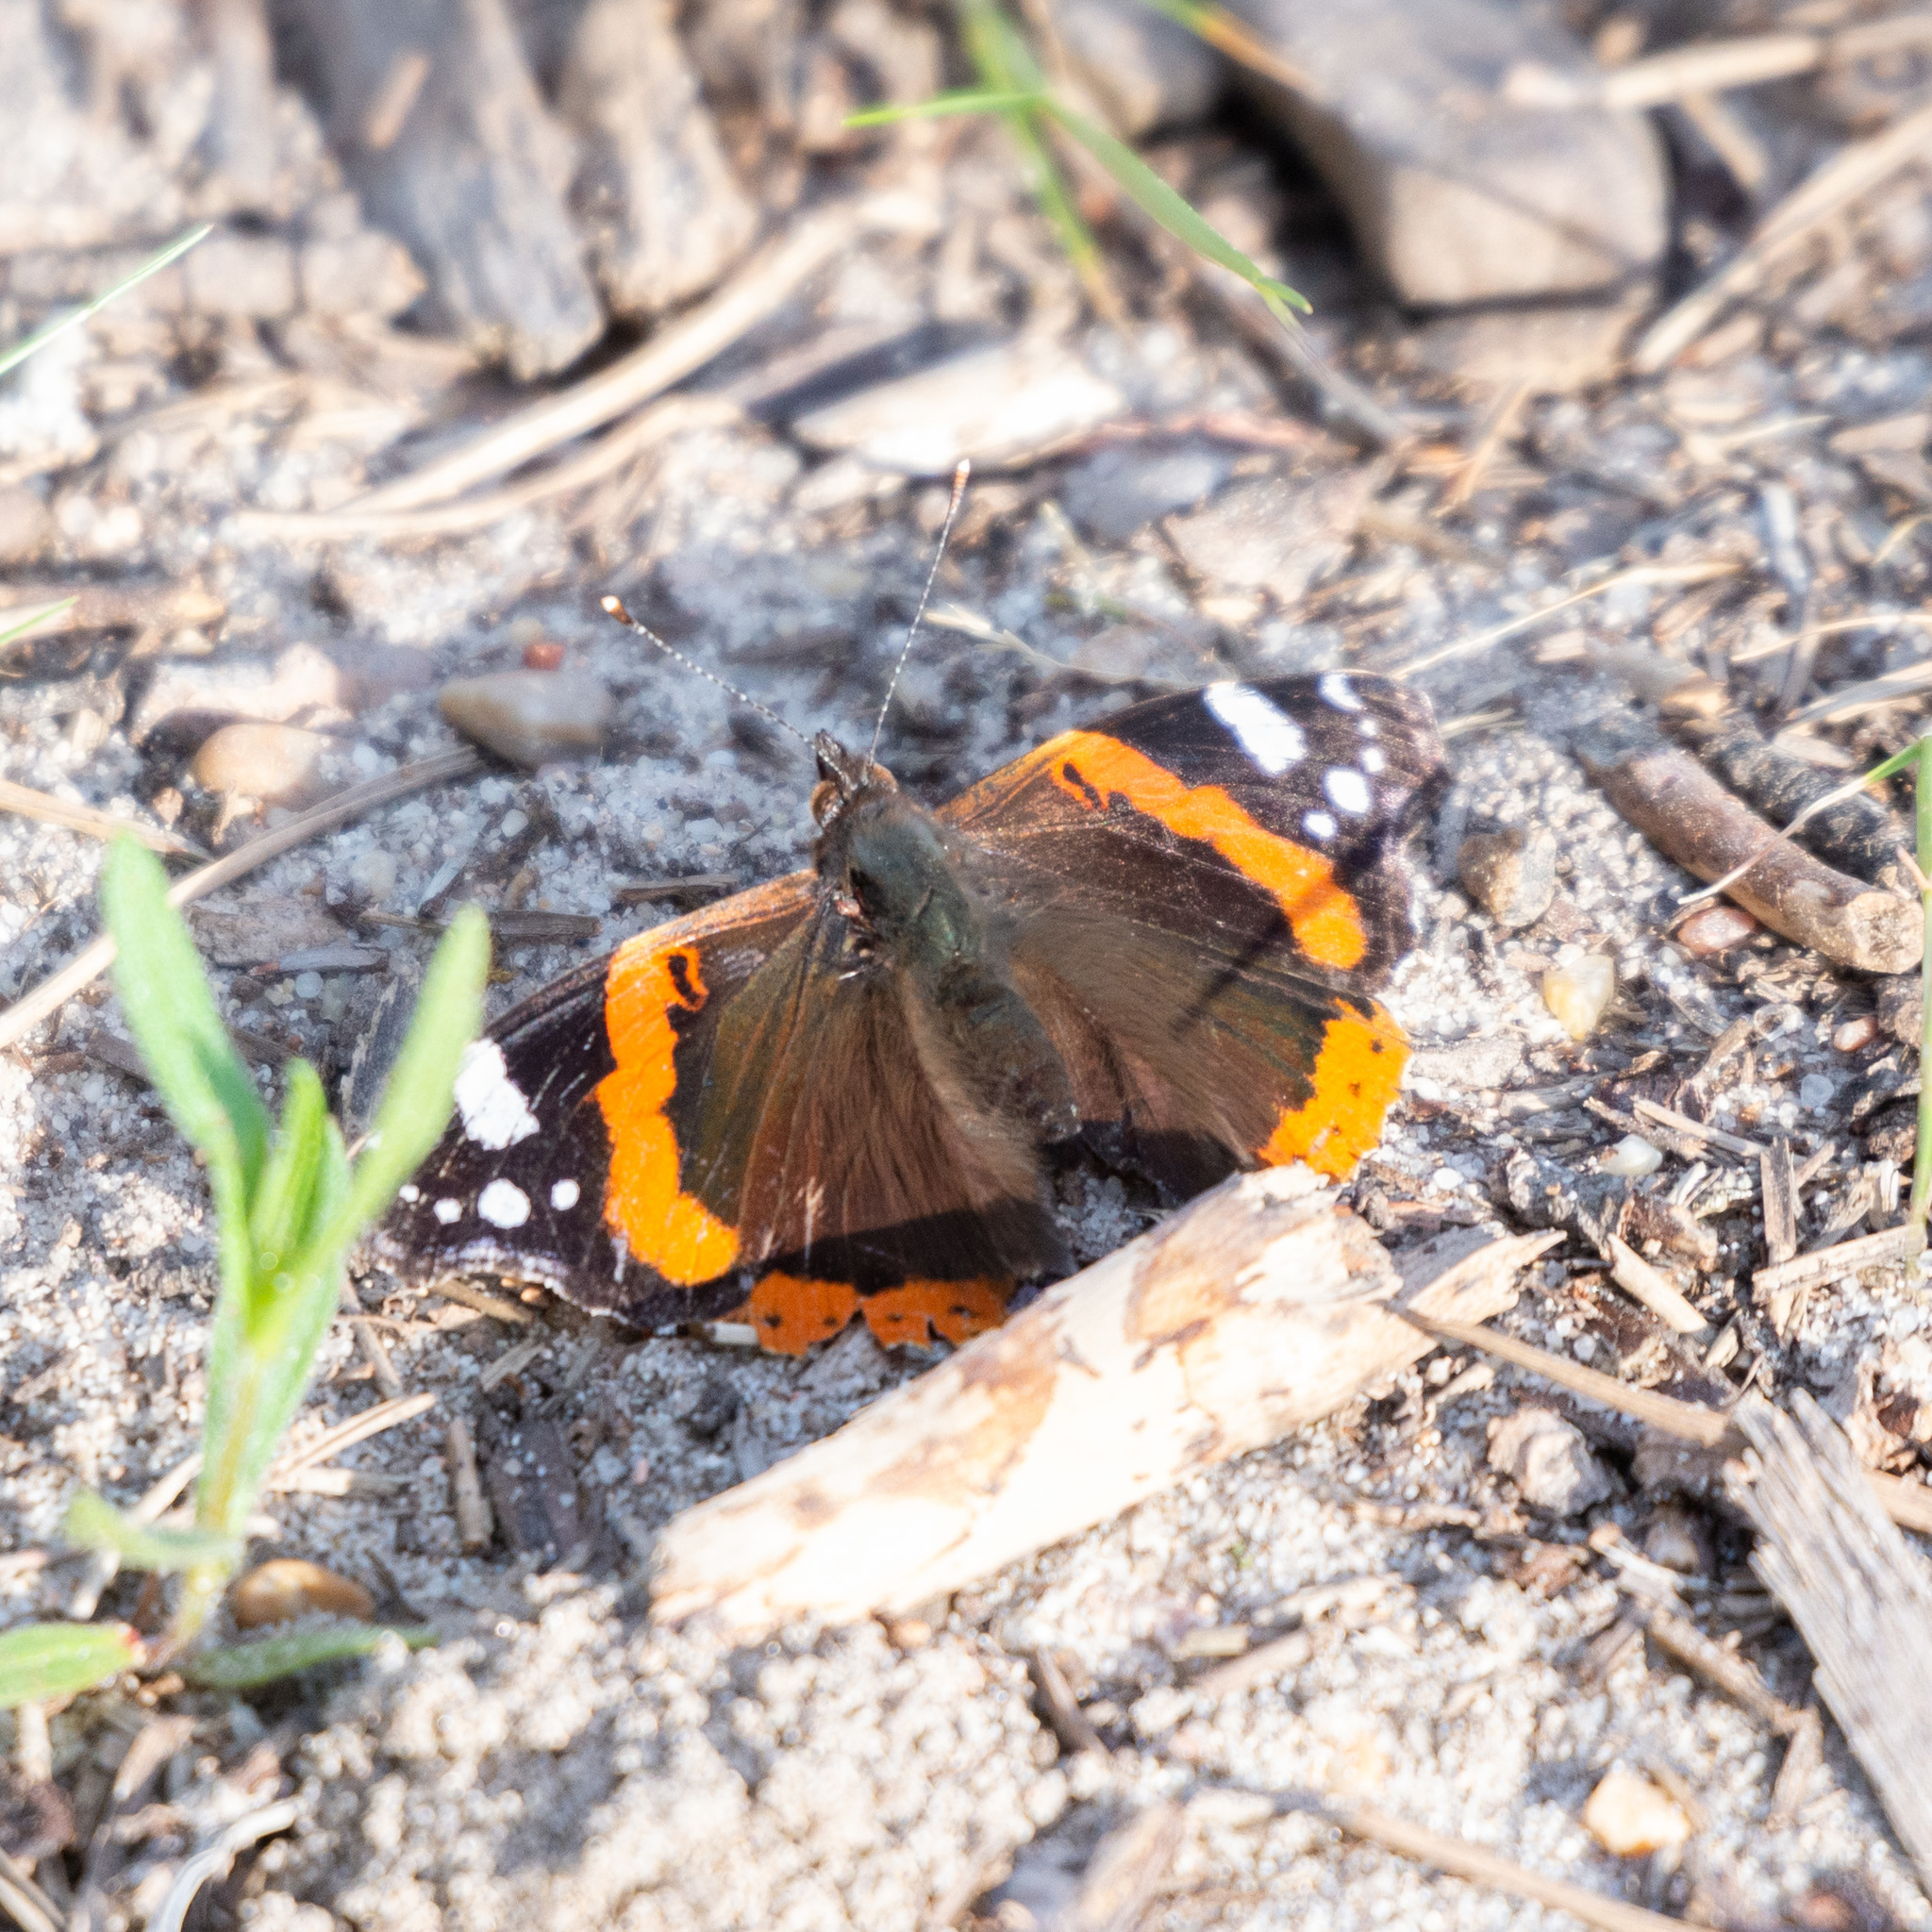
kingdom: Animalia
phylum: Arthropoda
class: Insecta
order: Lepidoptera
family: Nymphalidae
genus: Vanessa
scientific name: Vanessa atalanta
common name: Red admiral
